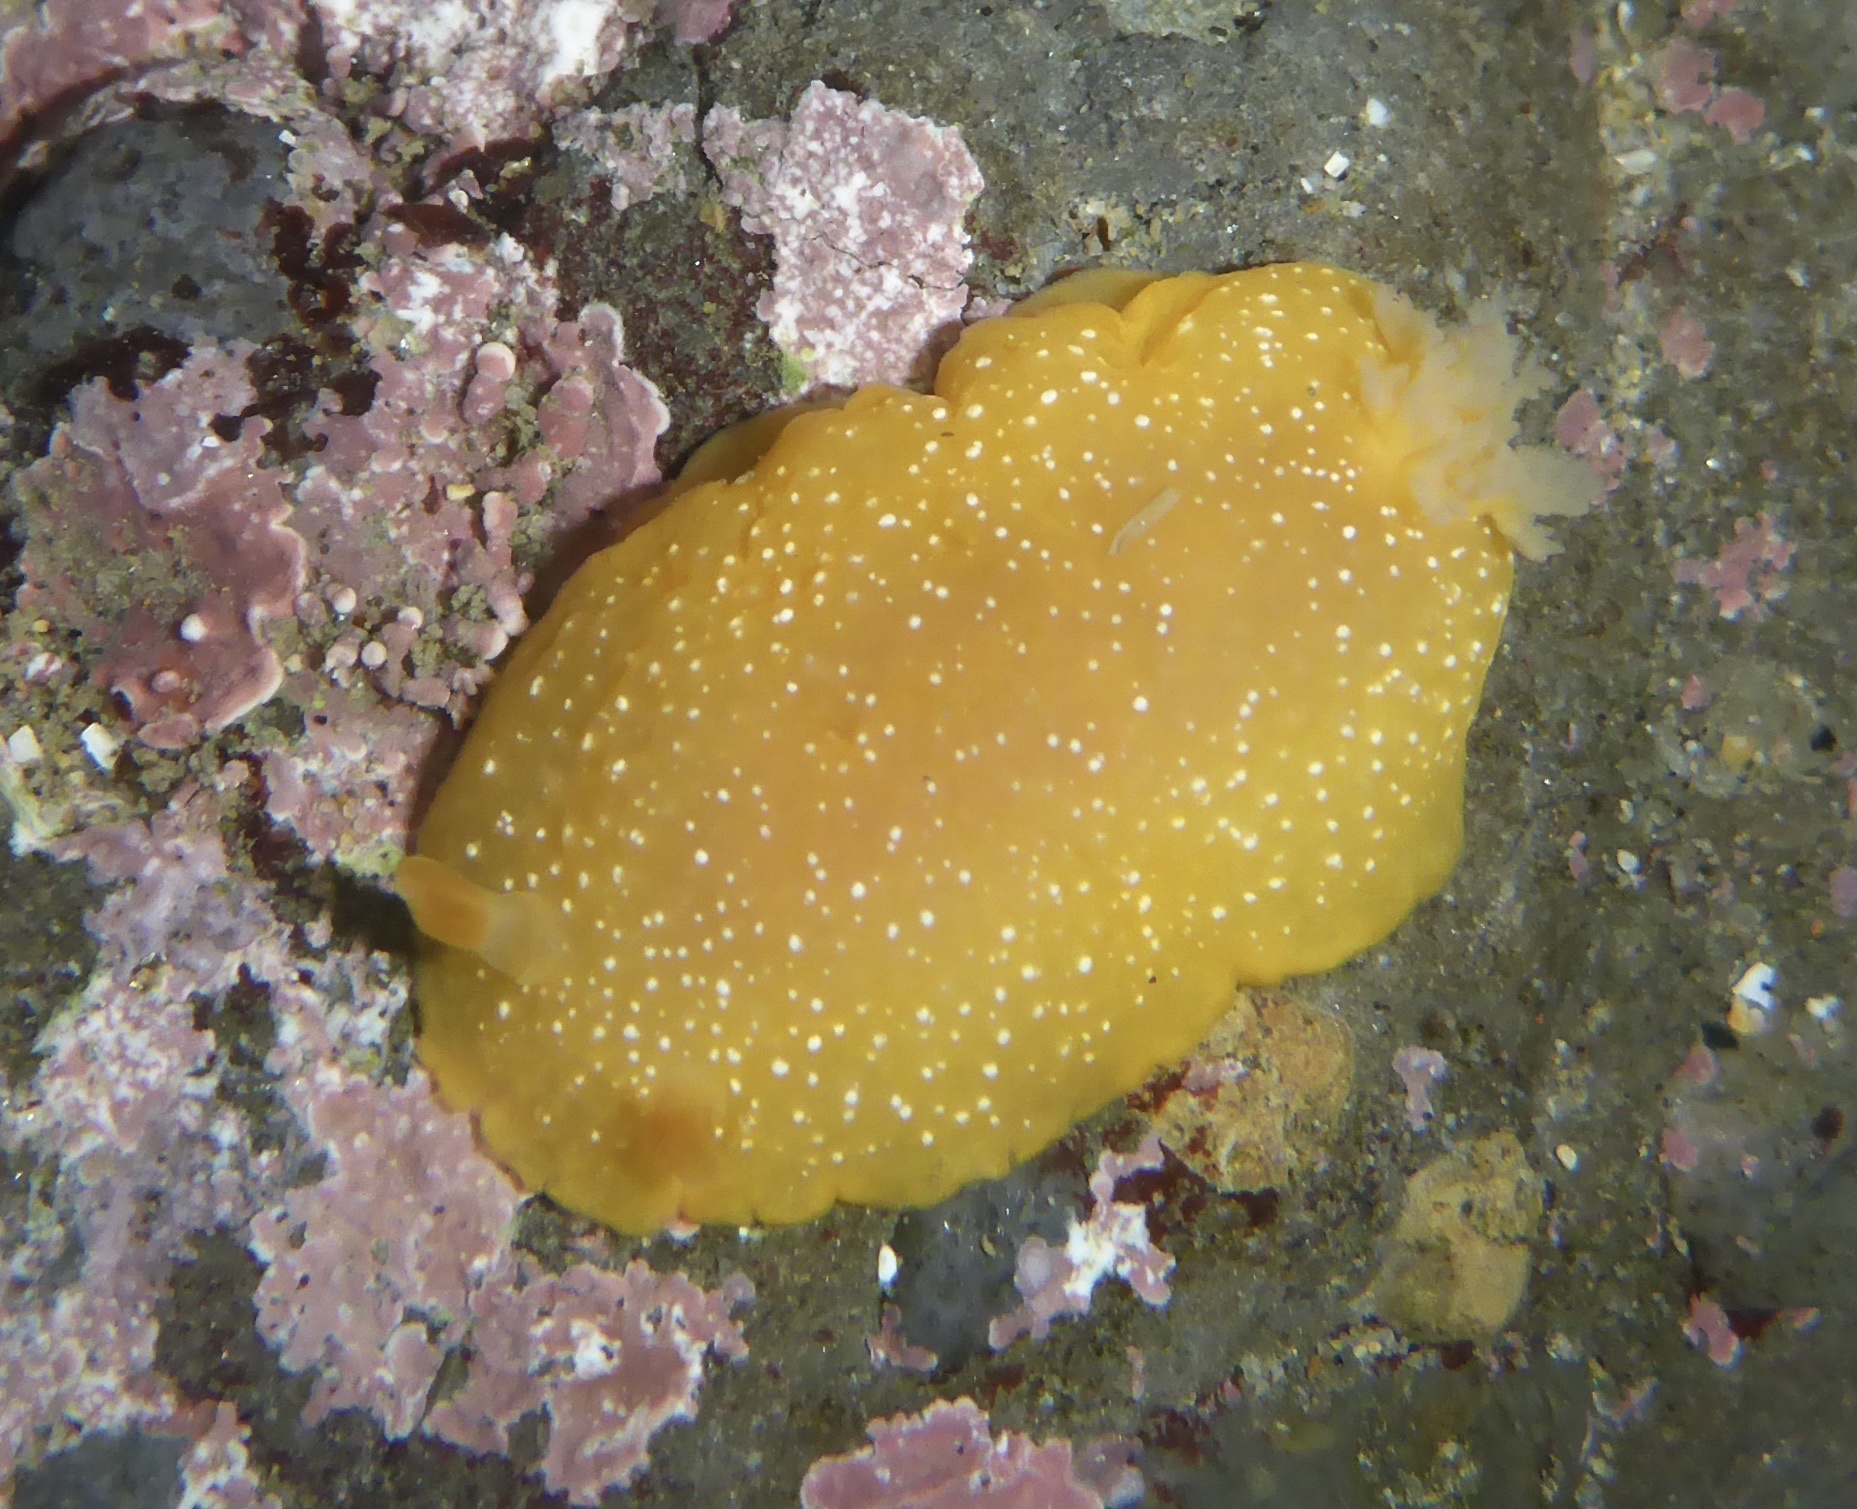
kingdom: Animalia
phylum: Mollusca
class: Gastropoda
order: Nudibranchia
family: Dendrodorididae
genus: Doriopsilla
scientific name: Doriopsilla fulva
